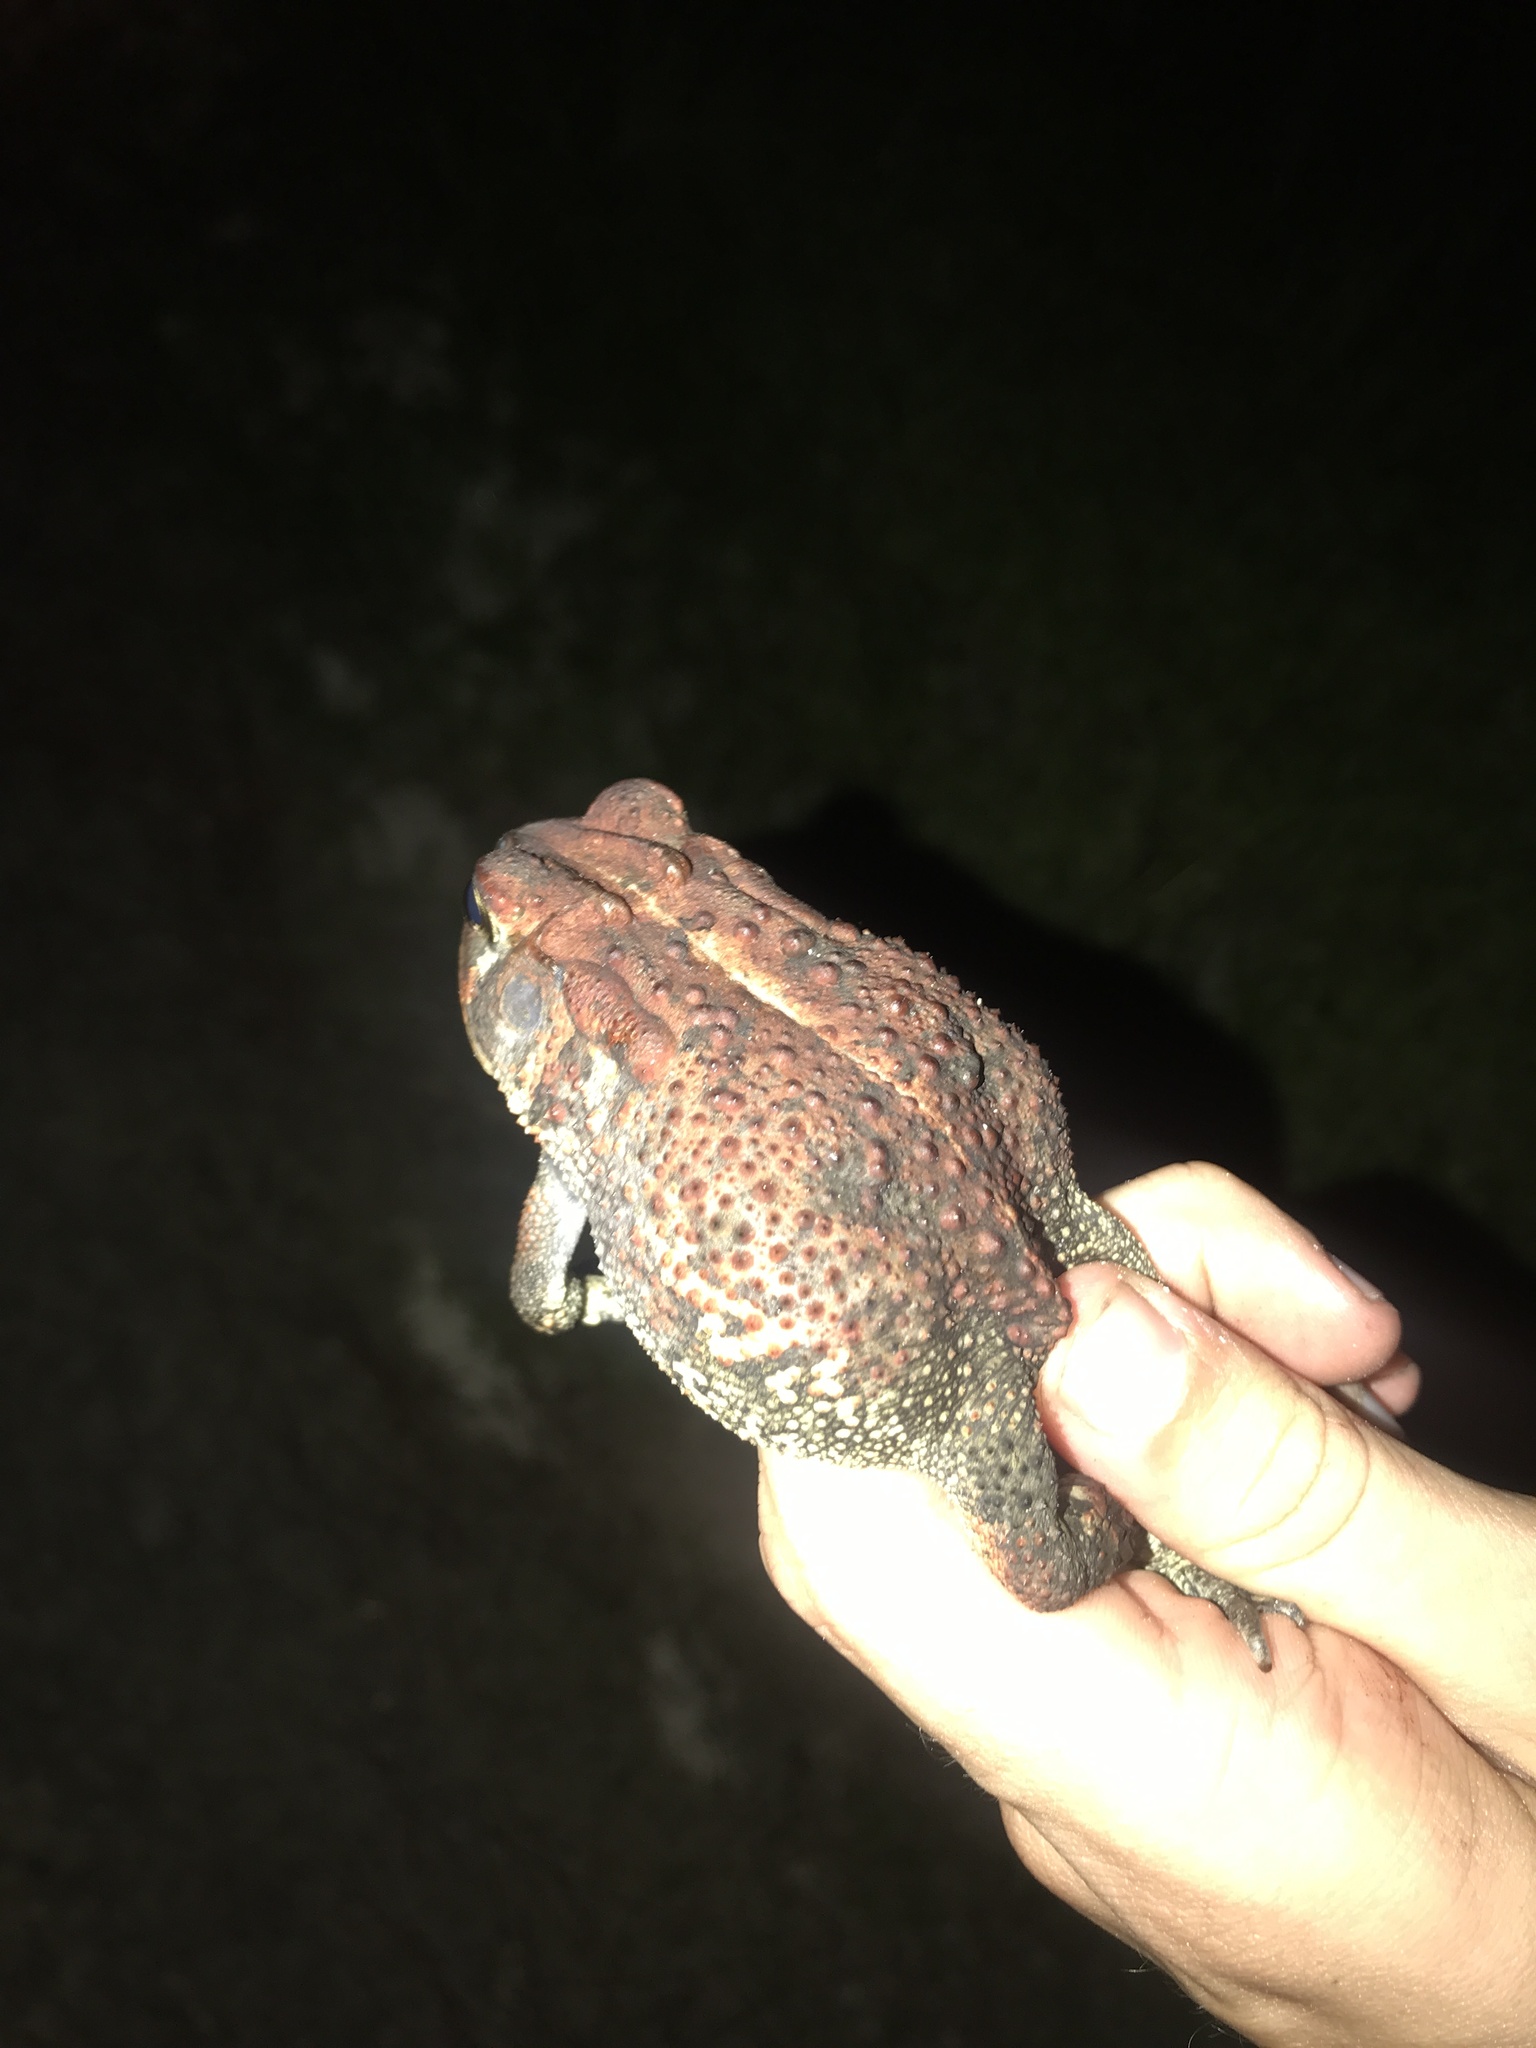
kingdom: Animalia
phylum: Chordata
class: Amphibia
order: Anura
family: Bufonidae
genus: Anaxyrus
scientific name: Anaxyrus terrestris
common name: Southern toad
